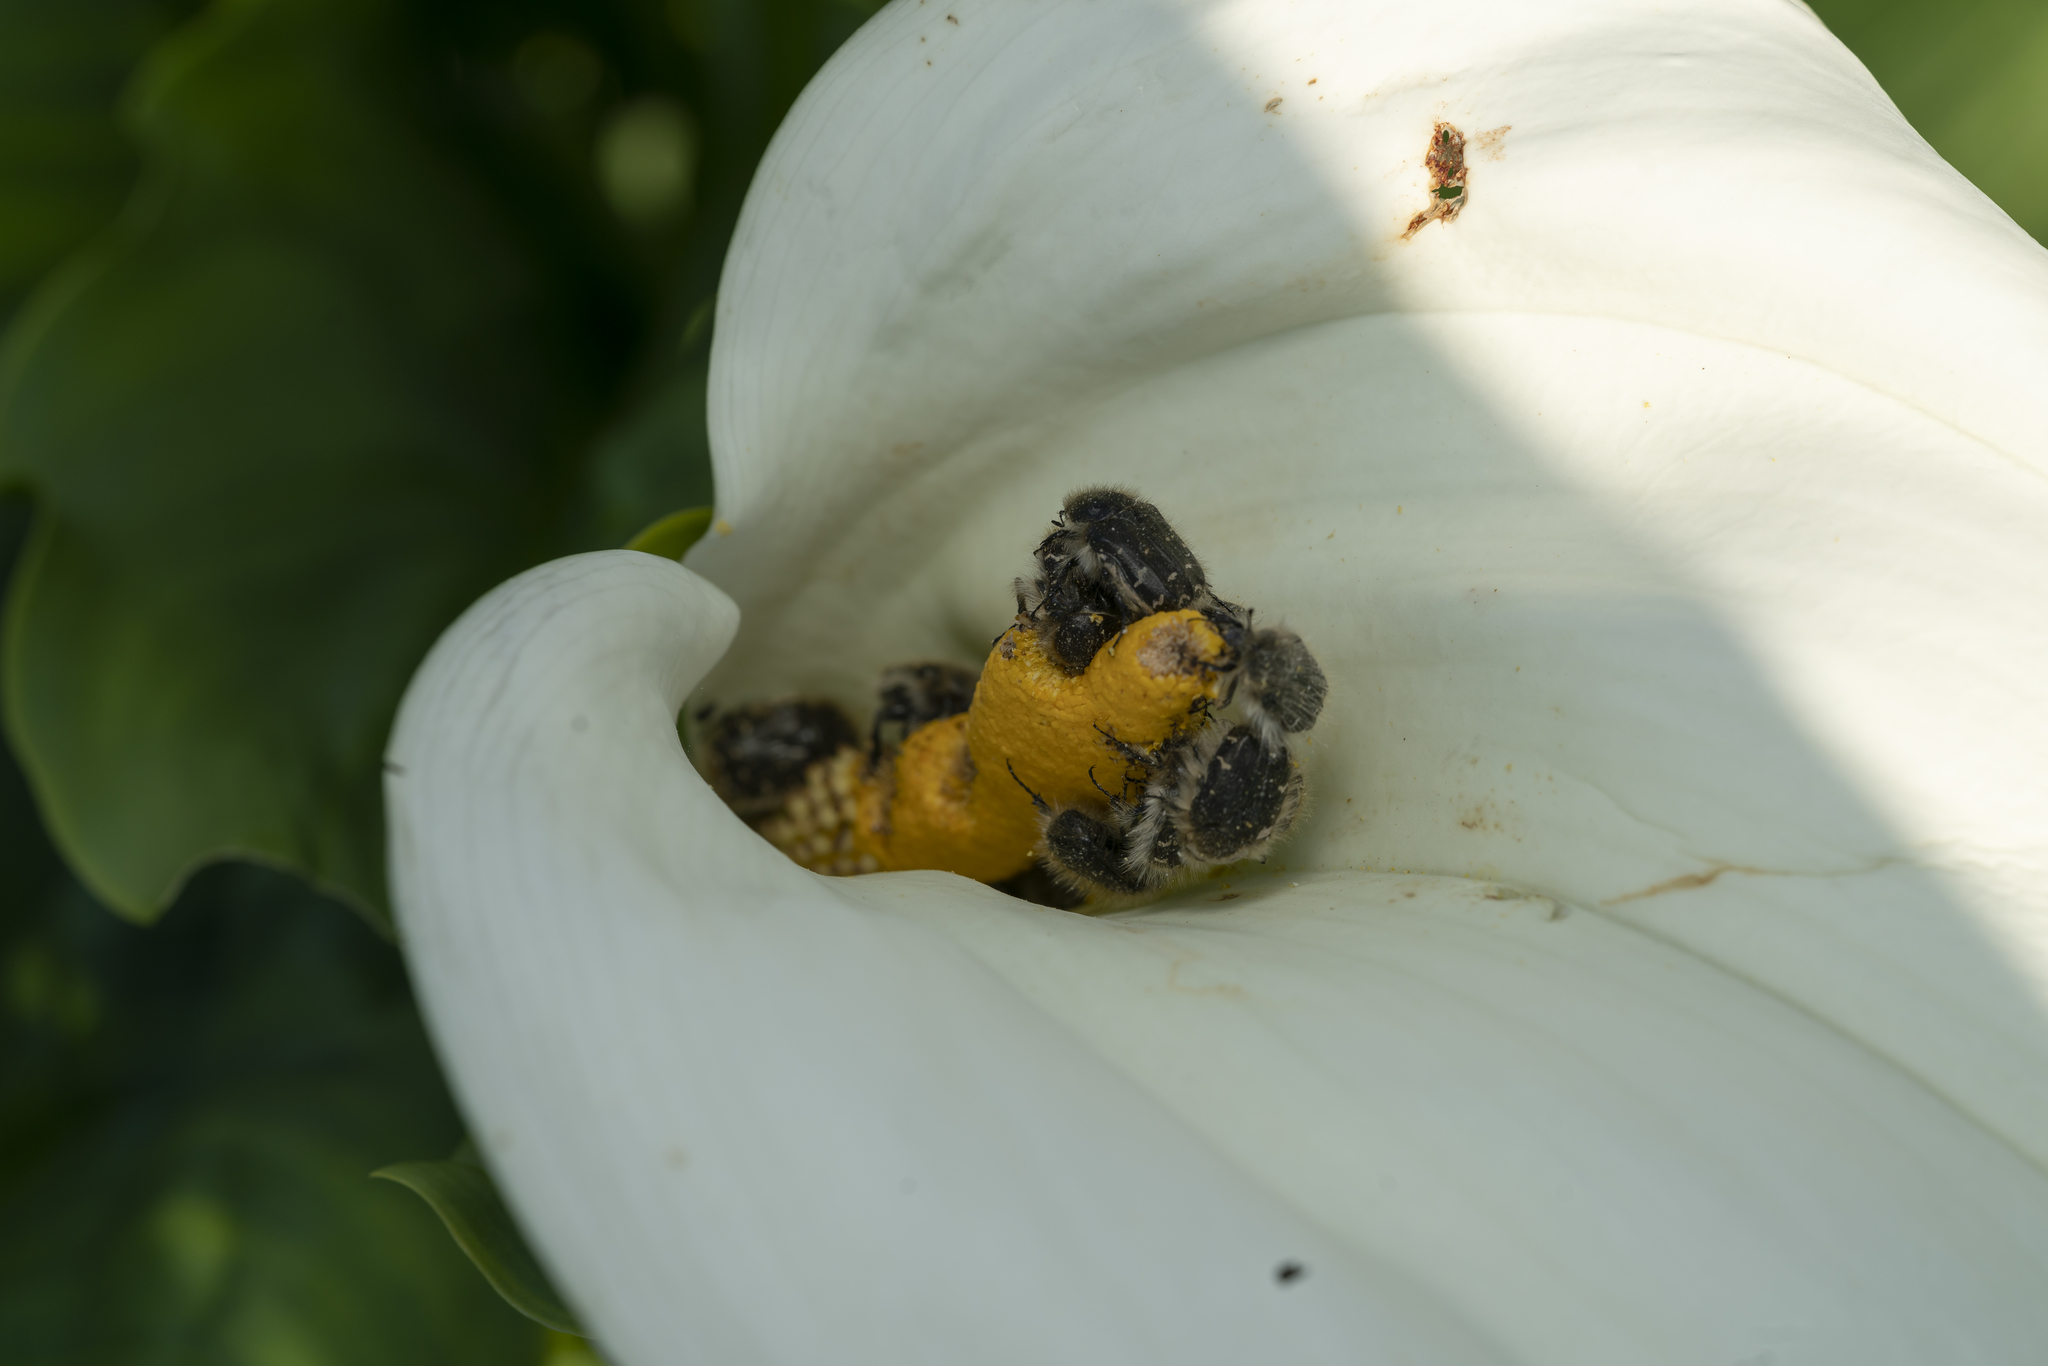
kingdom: Plantae
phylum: Tracheophyta
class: Liliopsida
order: Alismatales
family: Araceae
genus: Zantedeschia
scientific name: Zantedeschia aethiopica
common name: Altar-lily
